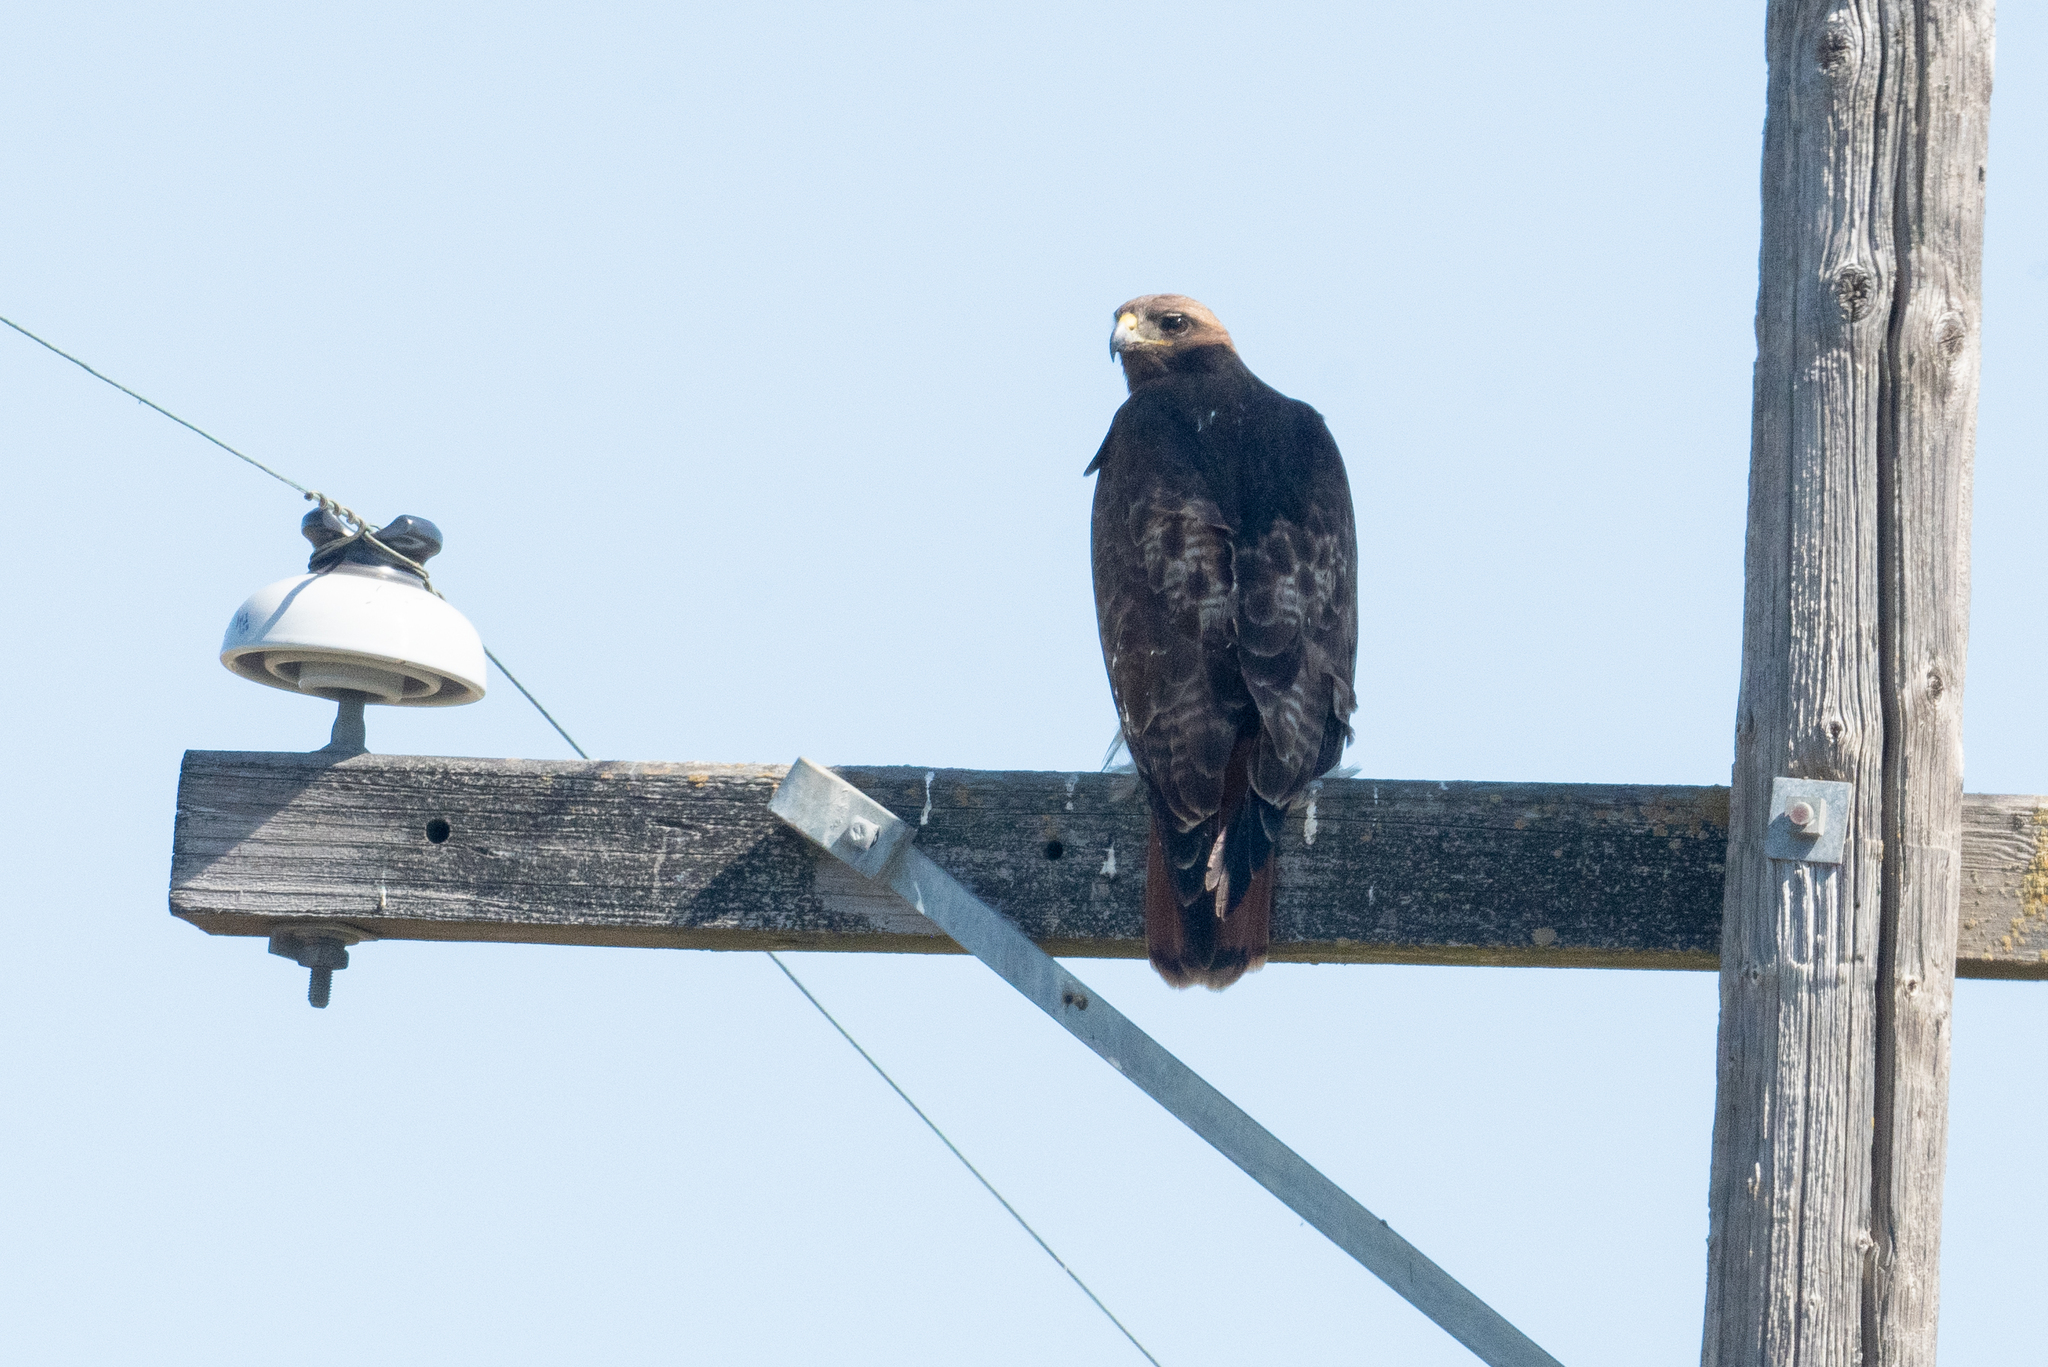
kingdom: Animalia
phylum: Chordata
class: Aves
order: Accipitriformes
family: Accipitridae
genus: Buteo
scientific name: Buteo jamaicensis
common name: Red-tailed hawk
